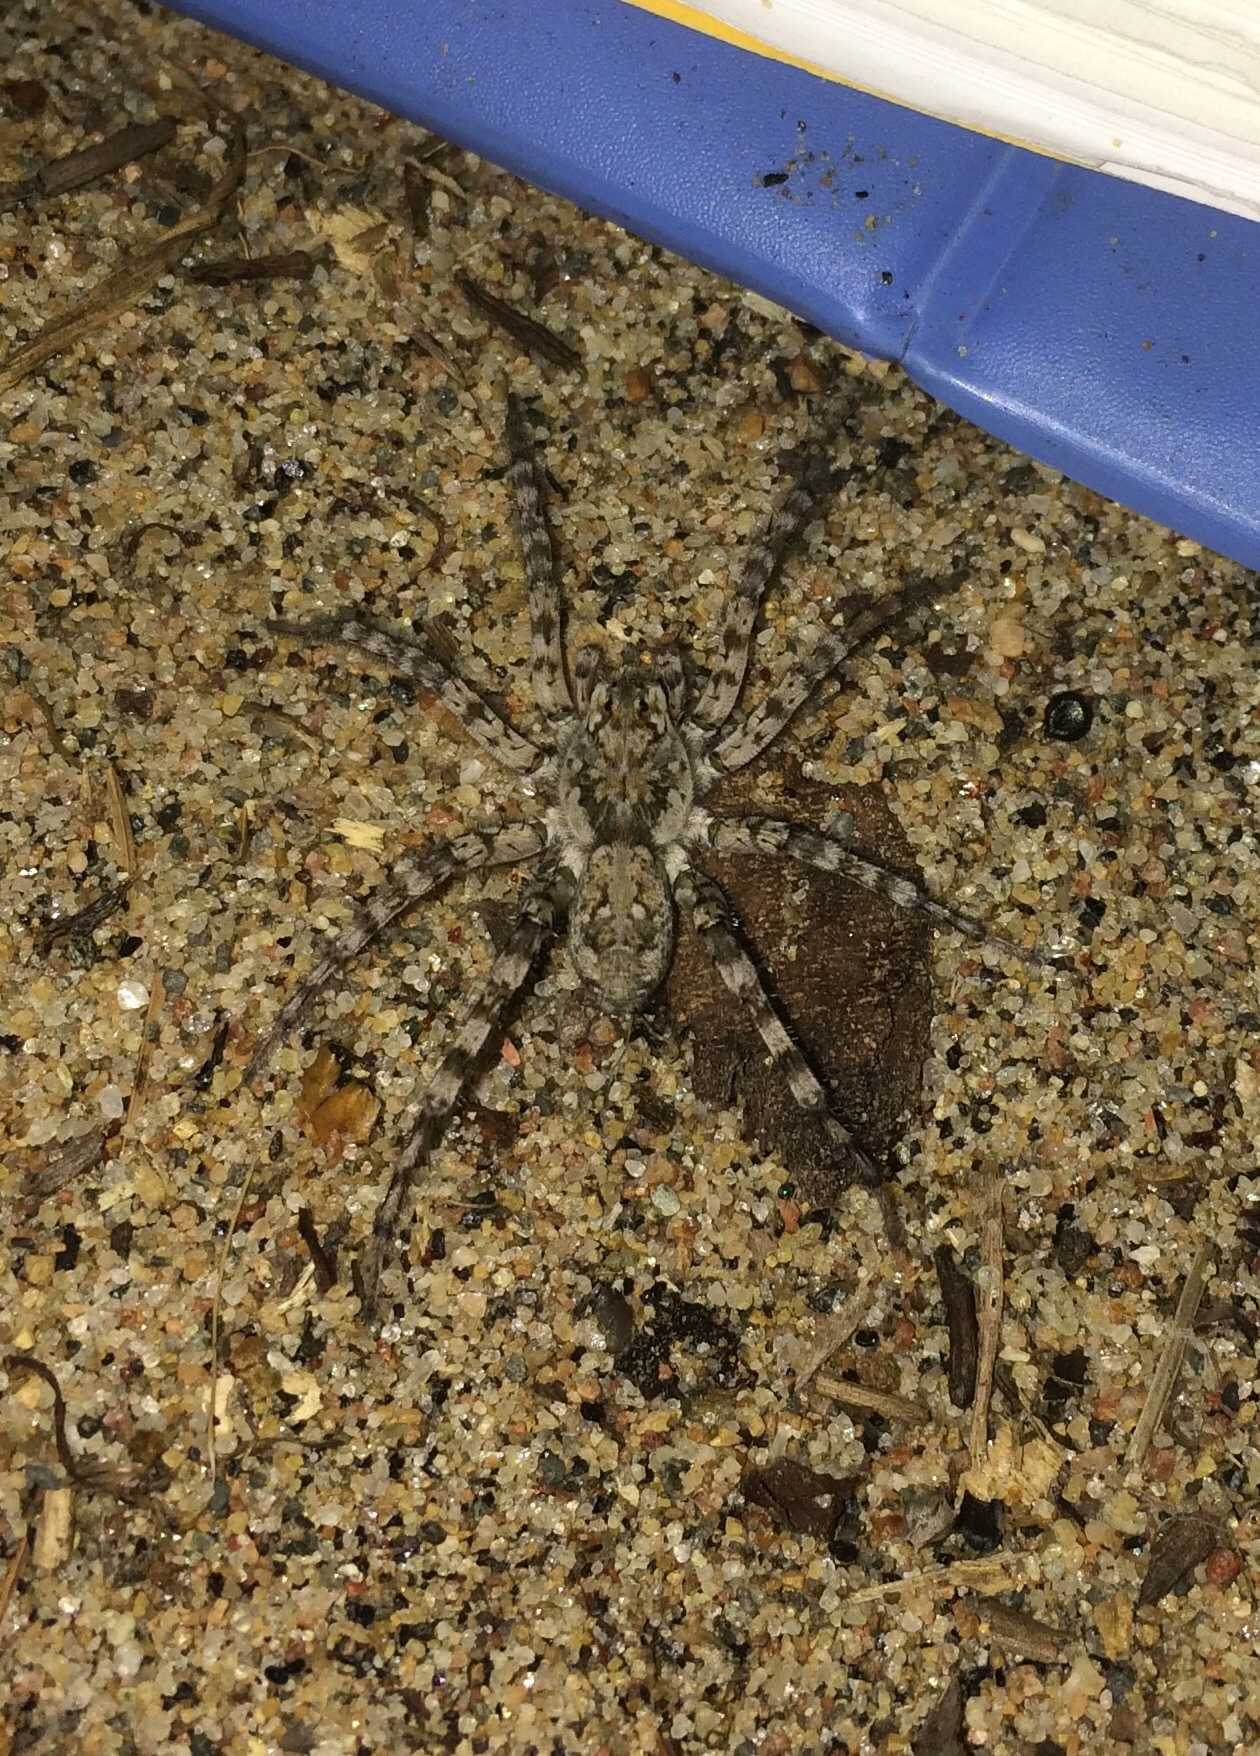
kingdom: Animalia
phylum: Arthropoda
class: Arachnida
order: Araneae
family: Lycosidae
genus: Arctosa
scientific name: Arctosa littoralis
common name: Wolf spiders
